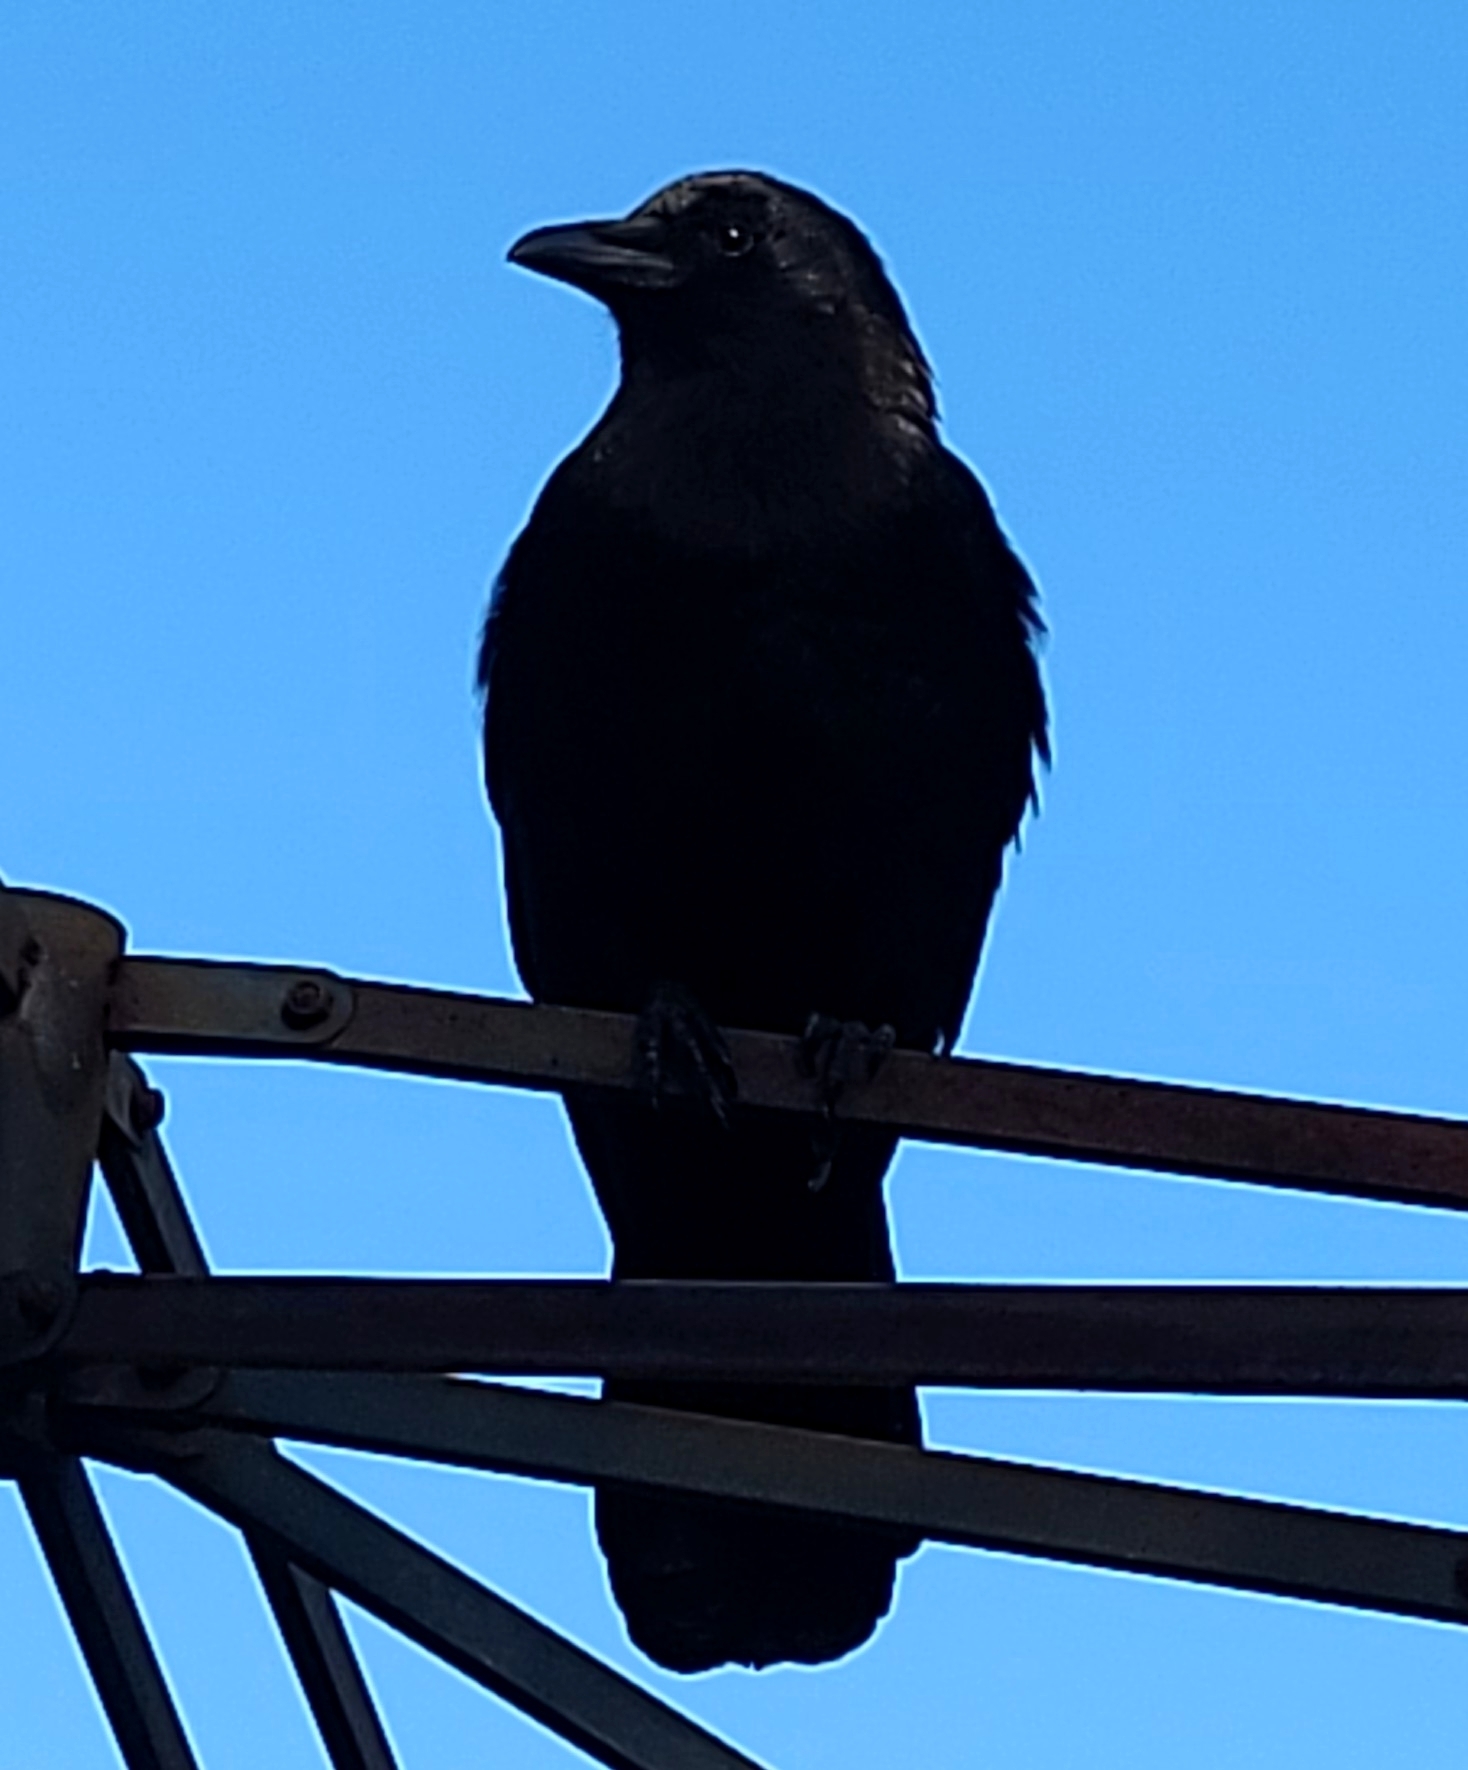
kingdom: Animalia
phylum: Chordata
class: Aves
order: Passeriformes
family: Corvidae
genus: Corvus
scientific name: Corvus brachyrhynchos
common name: American crow
